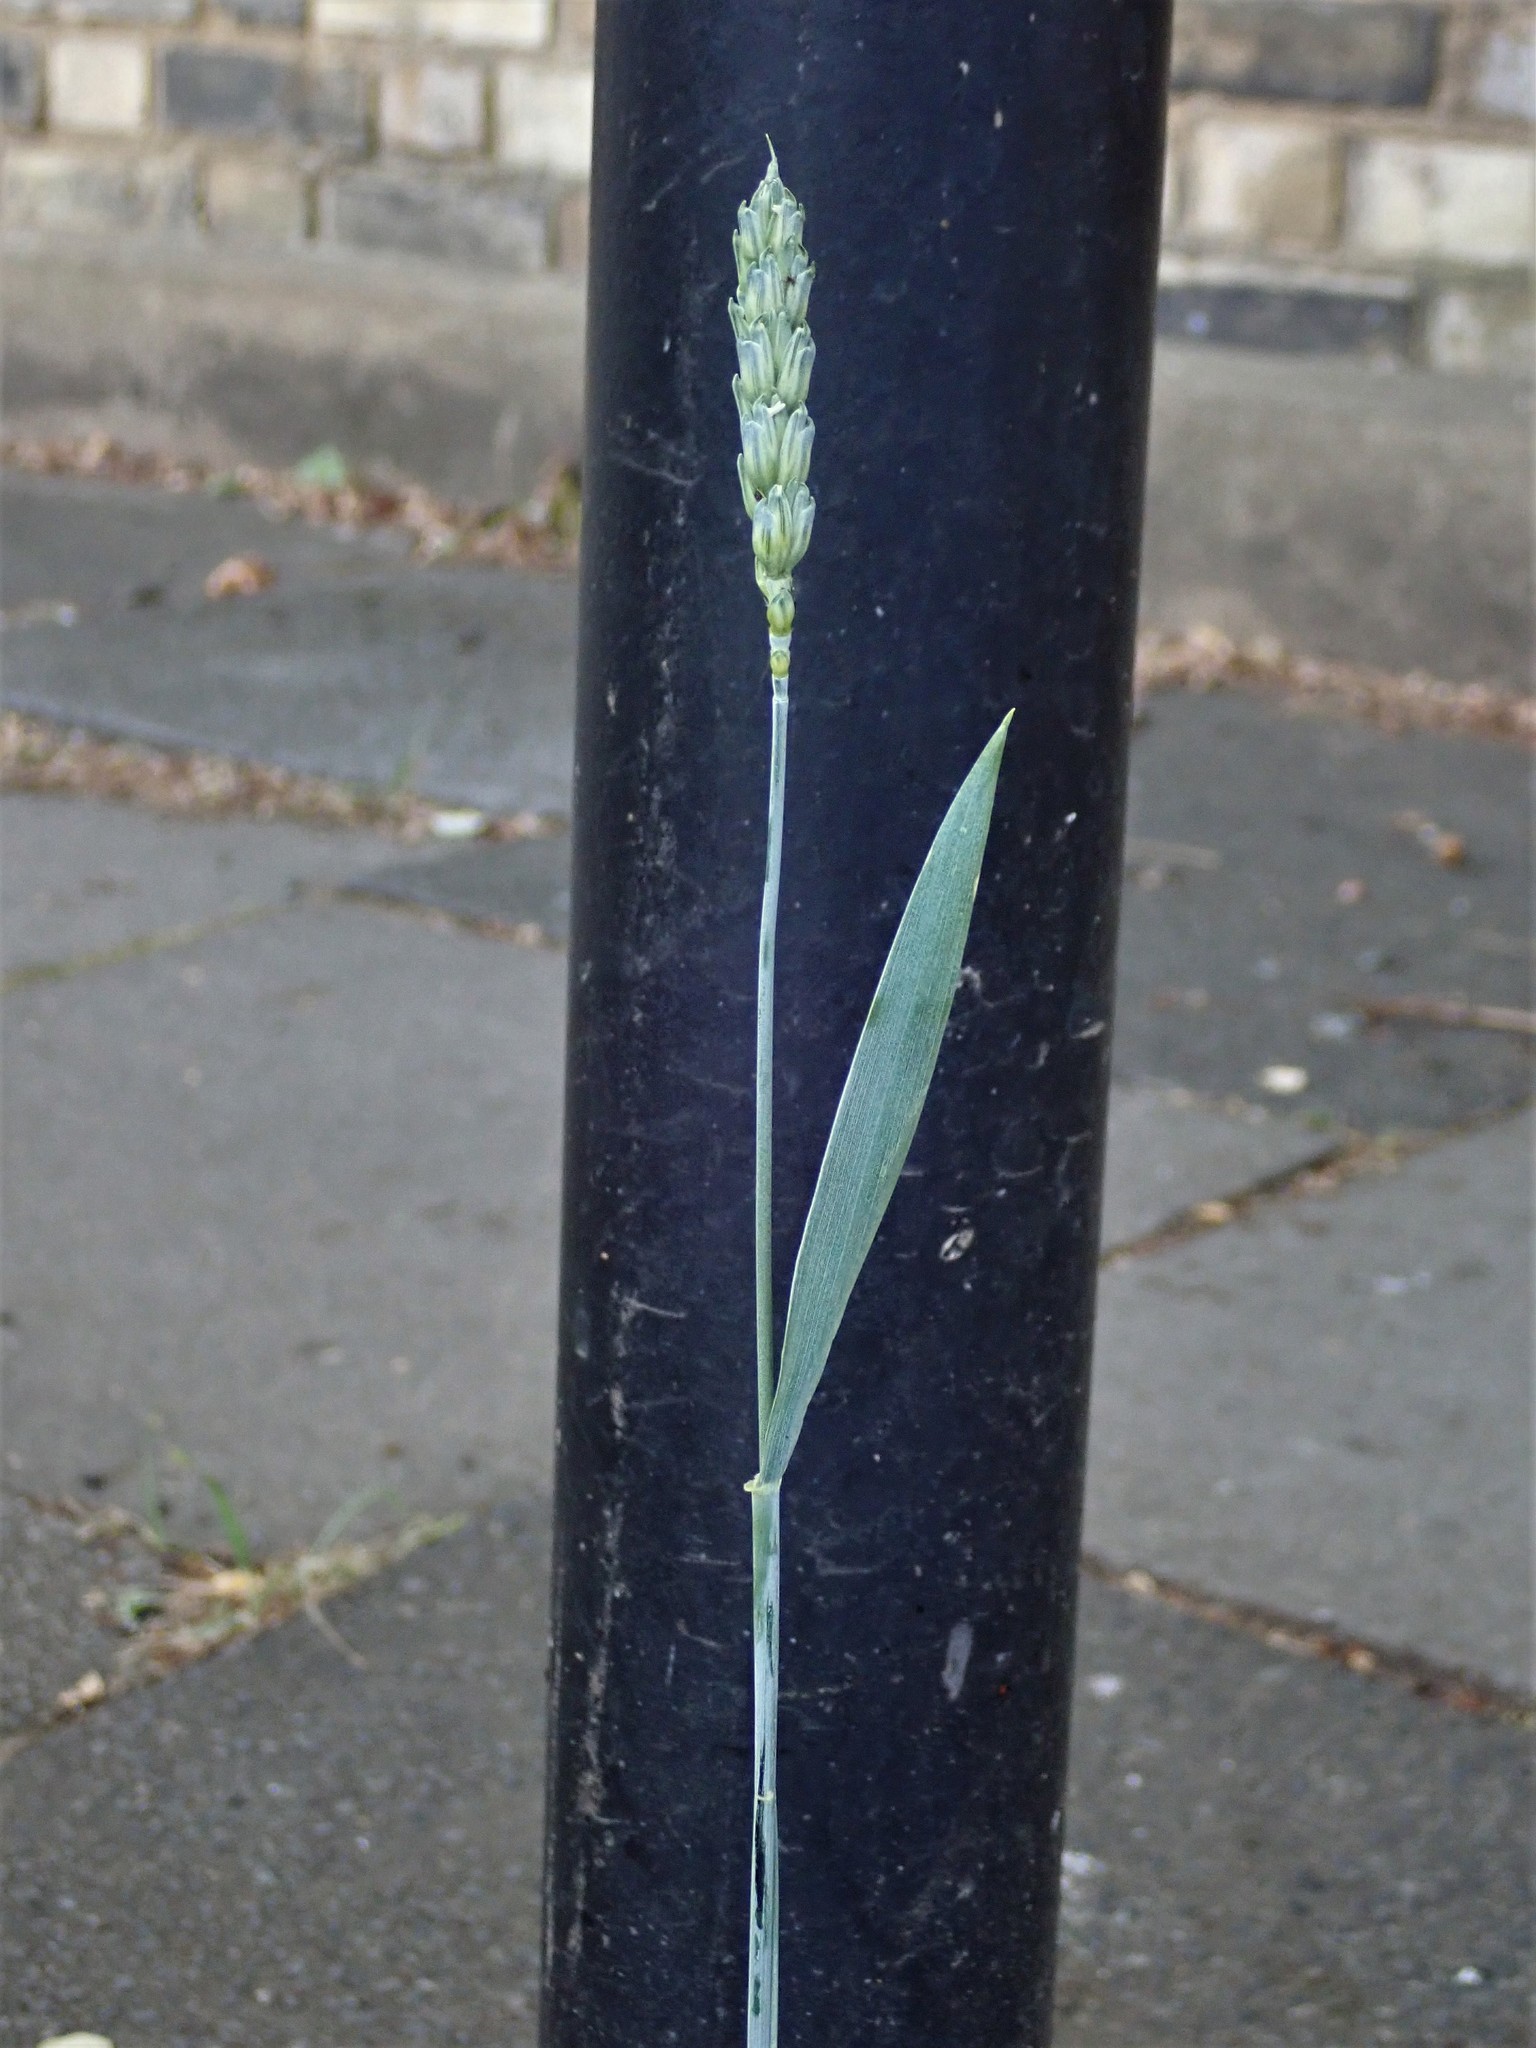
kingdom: Plantae
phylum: Tracheophyta
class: Liliopsida
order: Poales
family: Poaceae
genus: Triticum
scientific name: Triticum aestivum
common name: Common wheat
